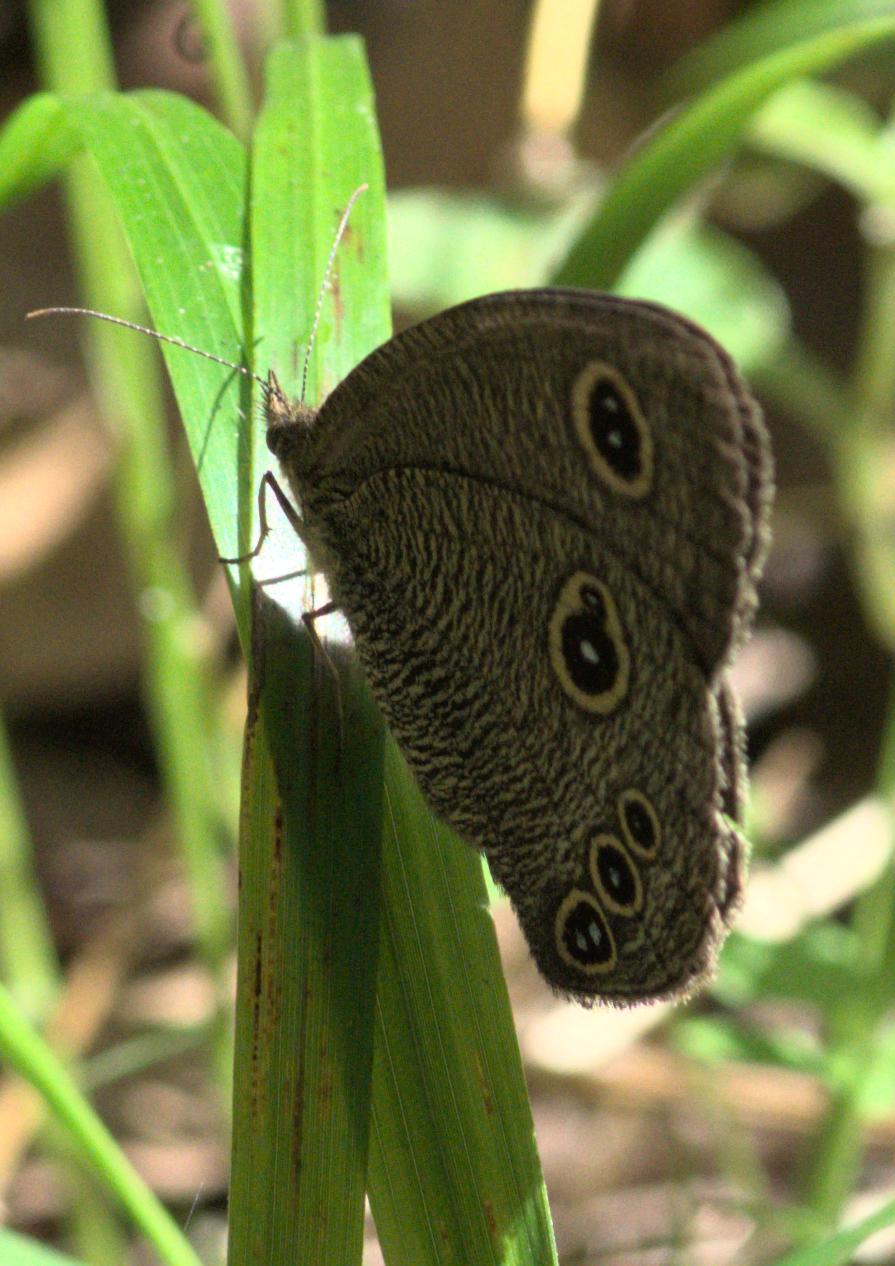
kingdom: Animalia
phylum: Arthropoda
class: Insecta
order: Lepidoptera
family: Nymphalidae
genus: Ypthima
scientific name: Ypthima nikaea
